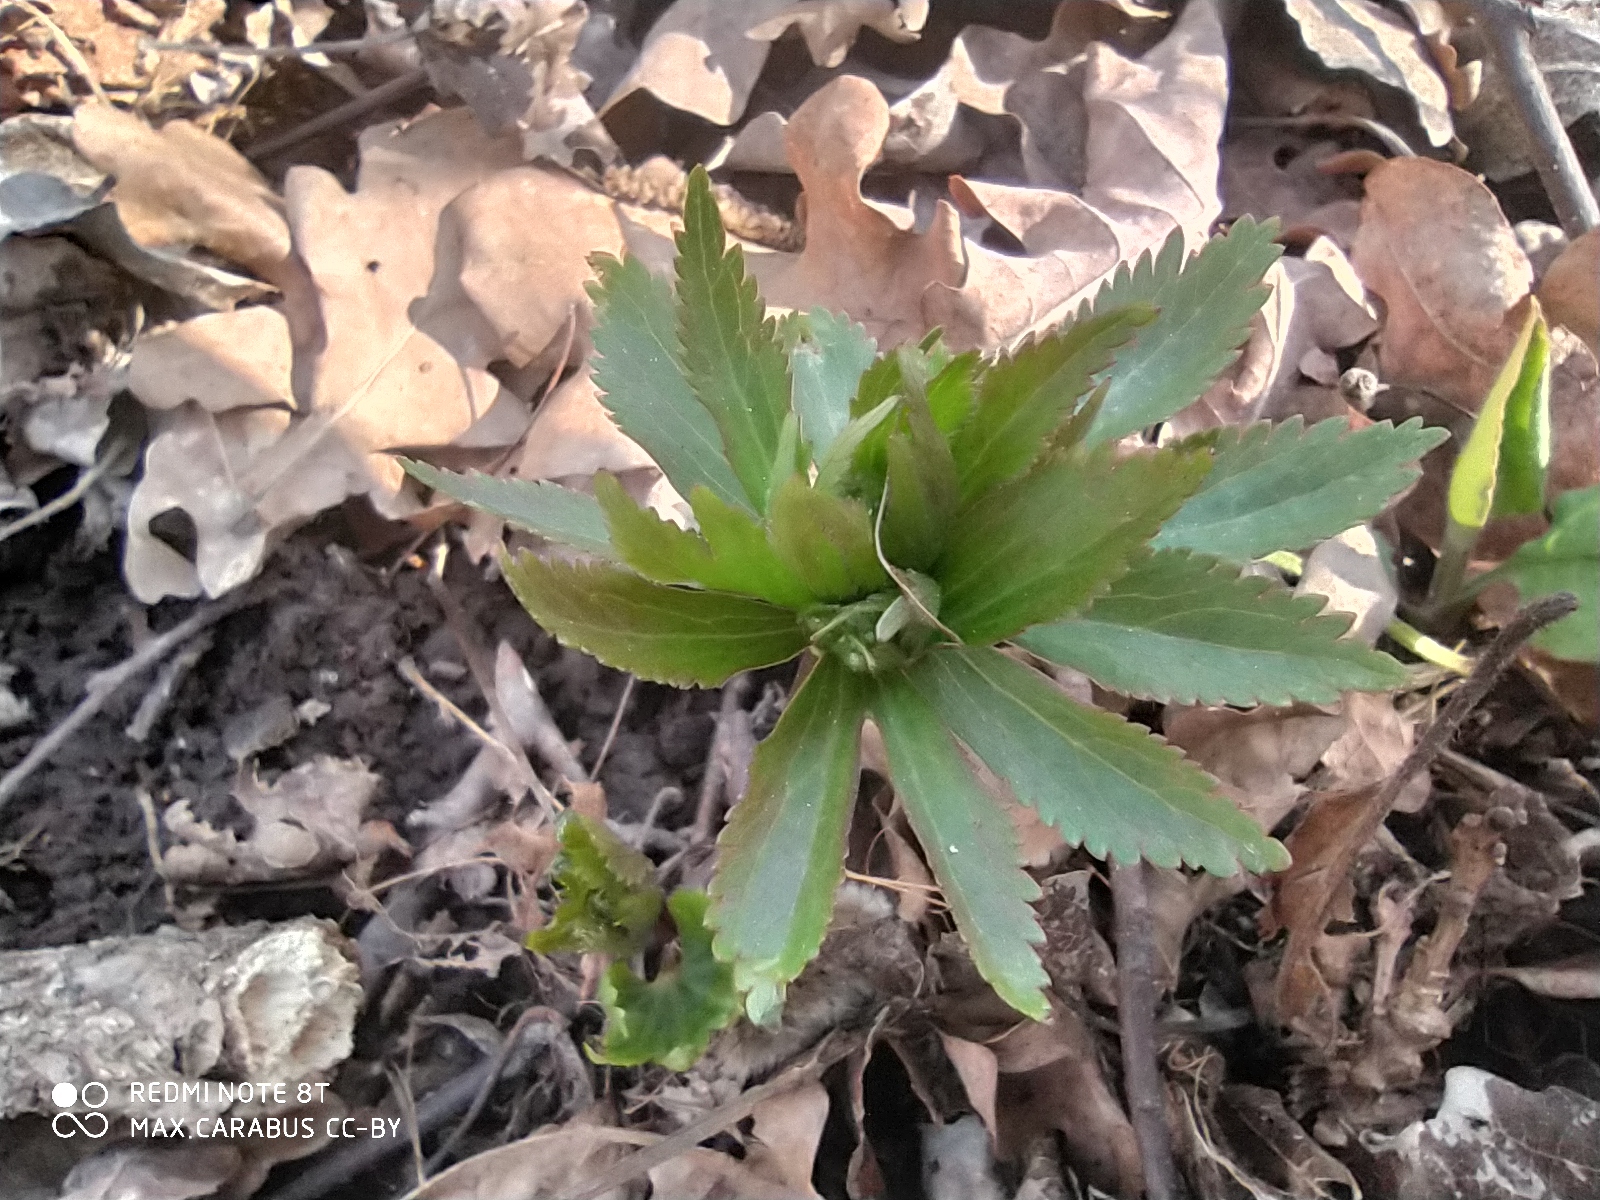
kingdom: Plantae
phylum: Tracheophyta
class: Magnoliopsida
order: Ranunculales
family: Ranunculaceae
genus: Ranunculus
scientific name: Ranunculus cassubicus
